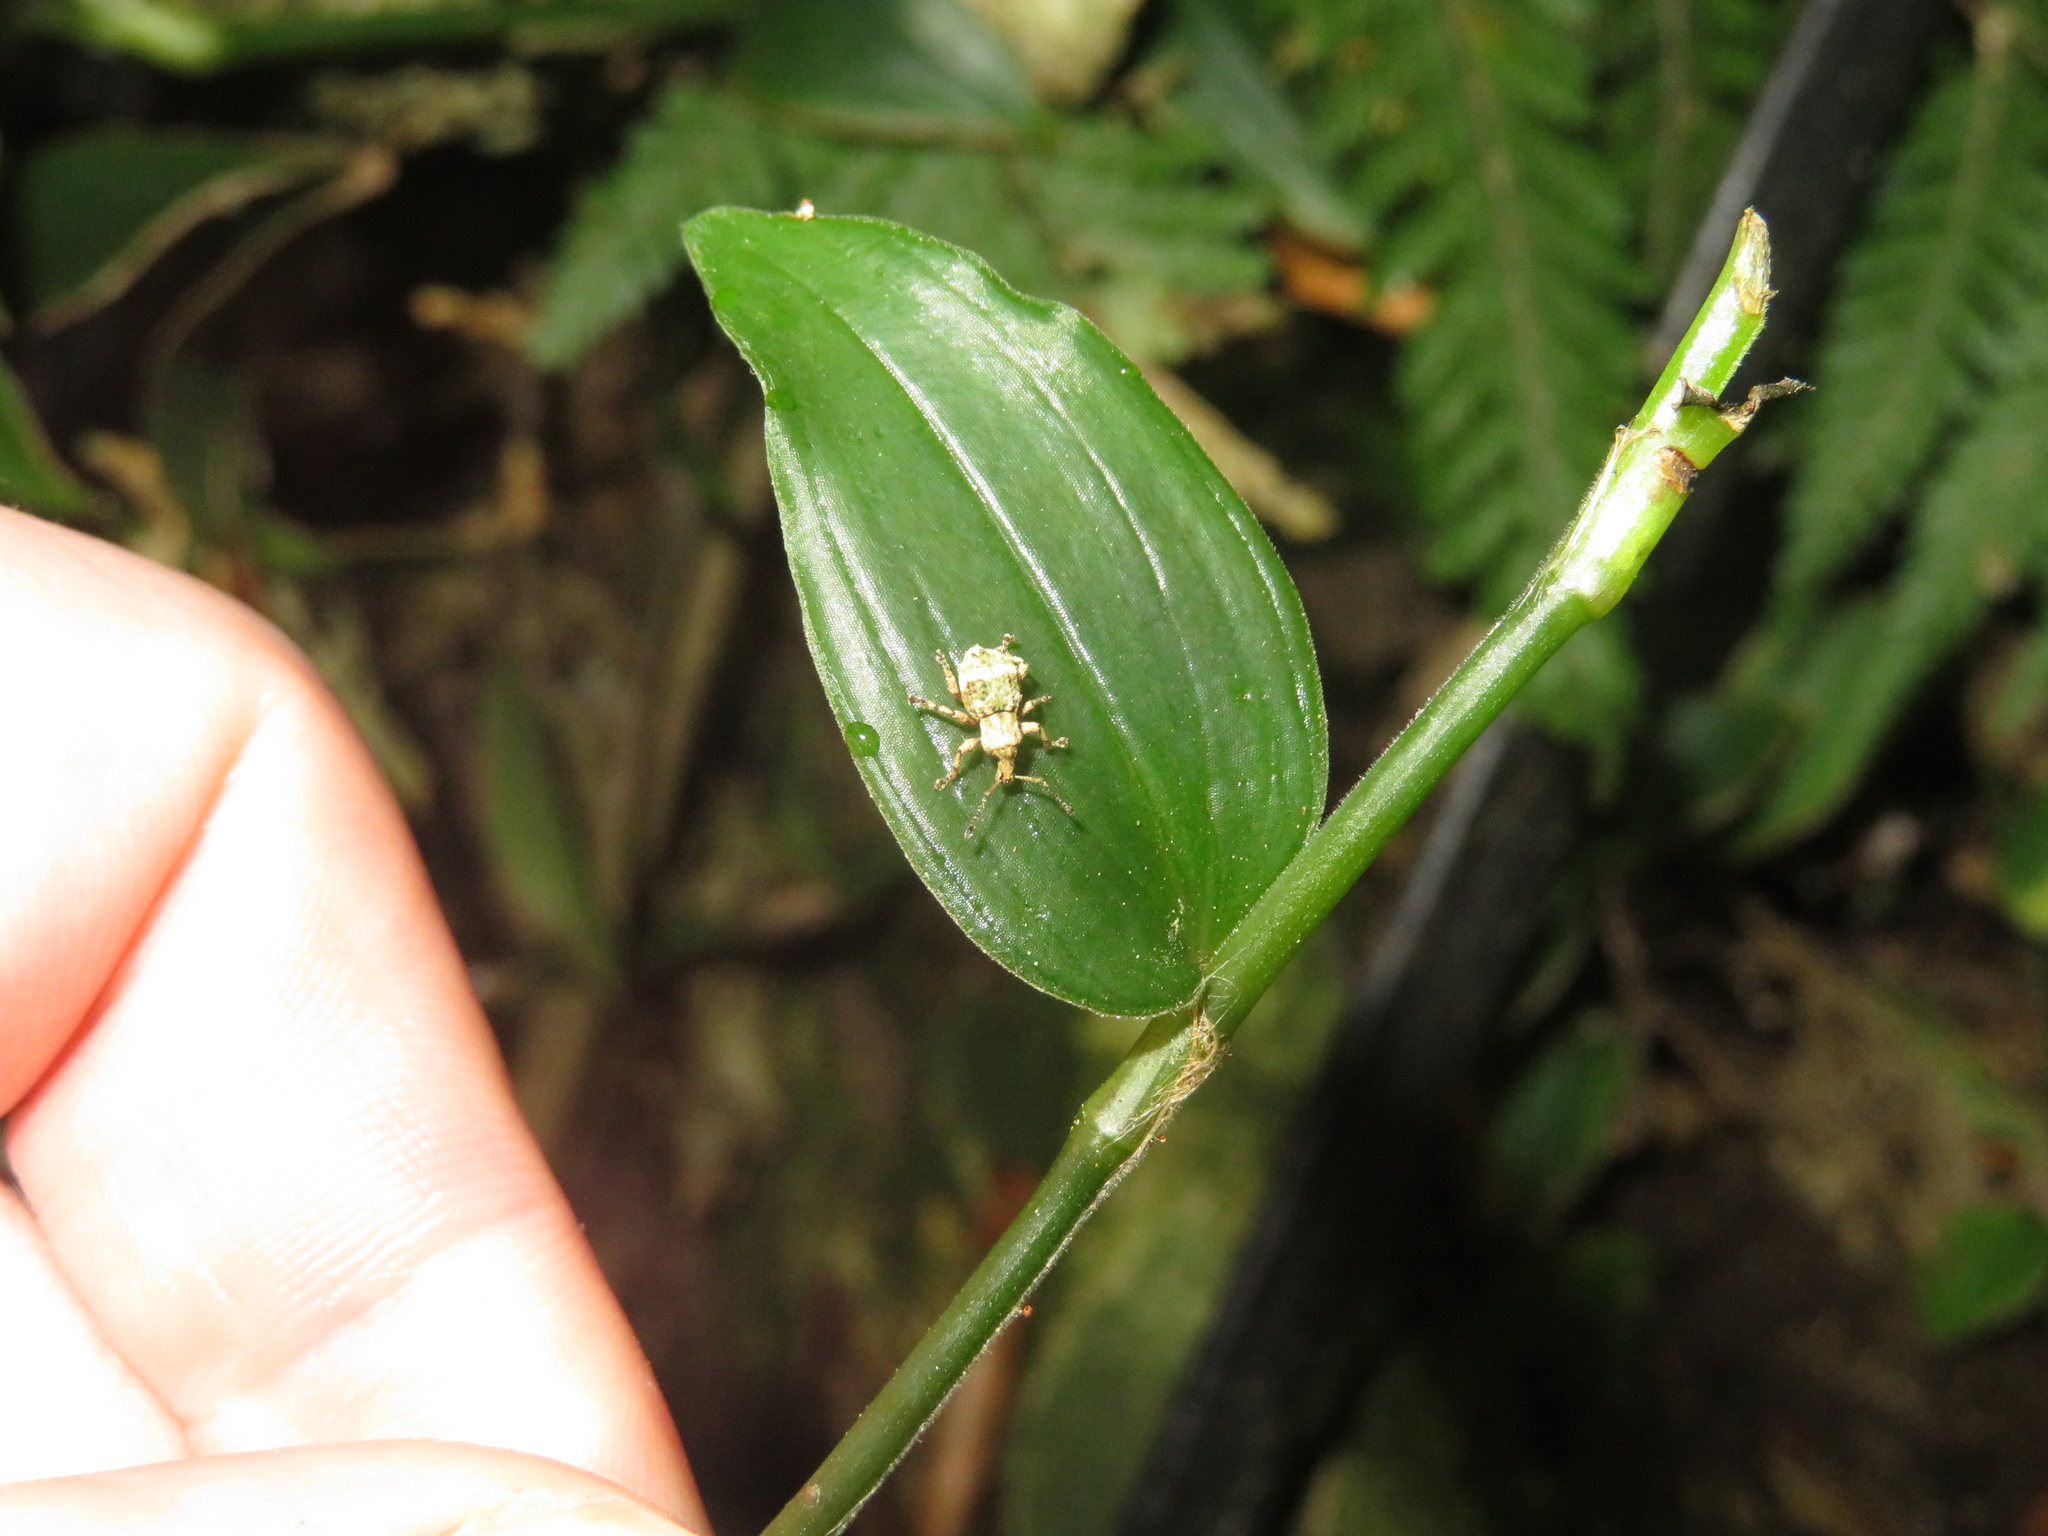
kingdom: Animalia
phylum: Arthropoda
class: Insecta
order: Coleoptera
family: Curculionidae
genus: Brachyolus
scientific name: Brachyolus punctatus
